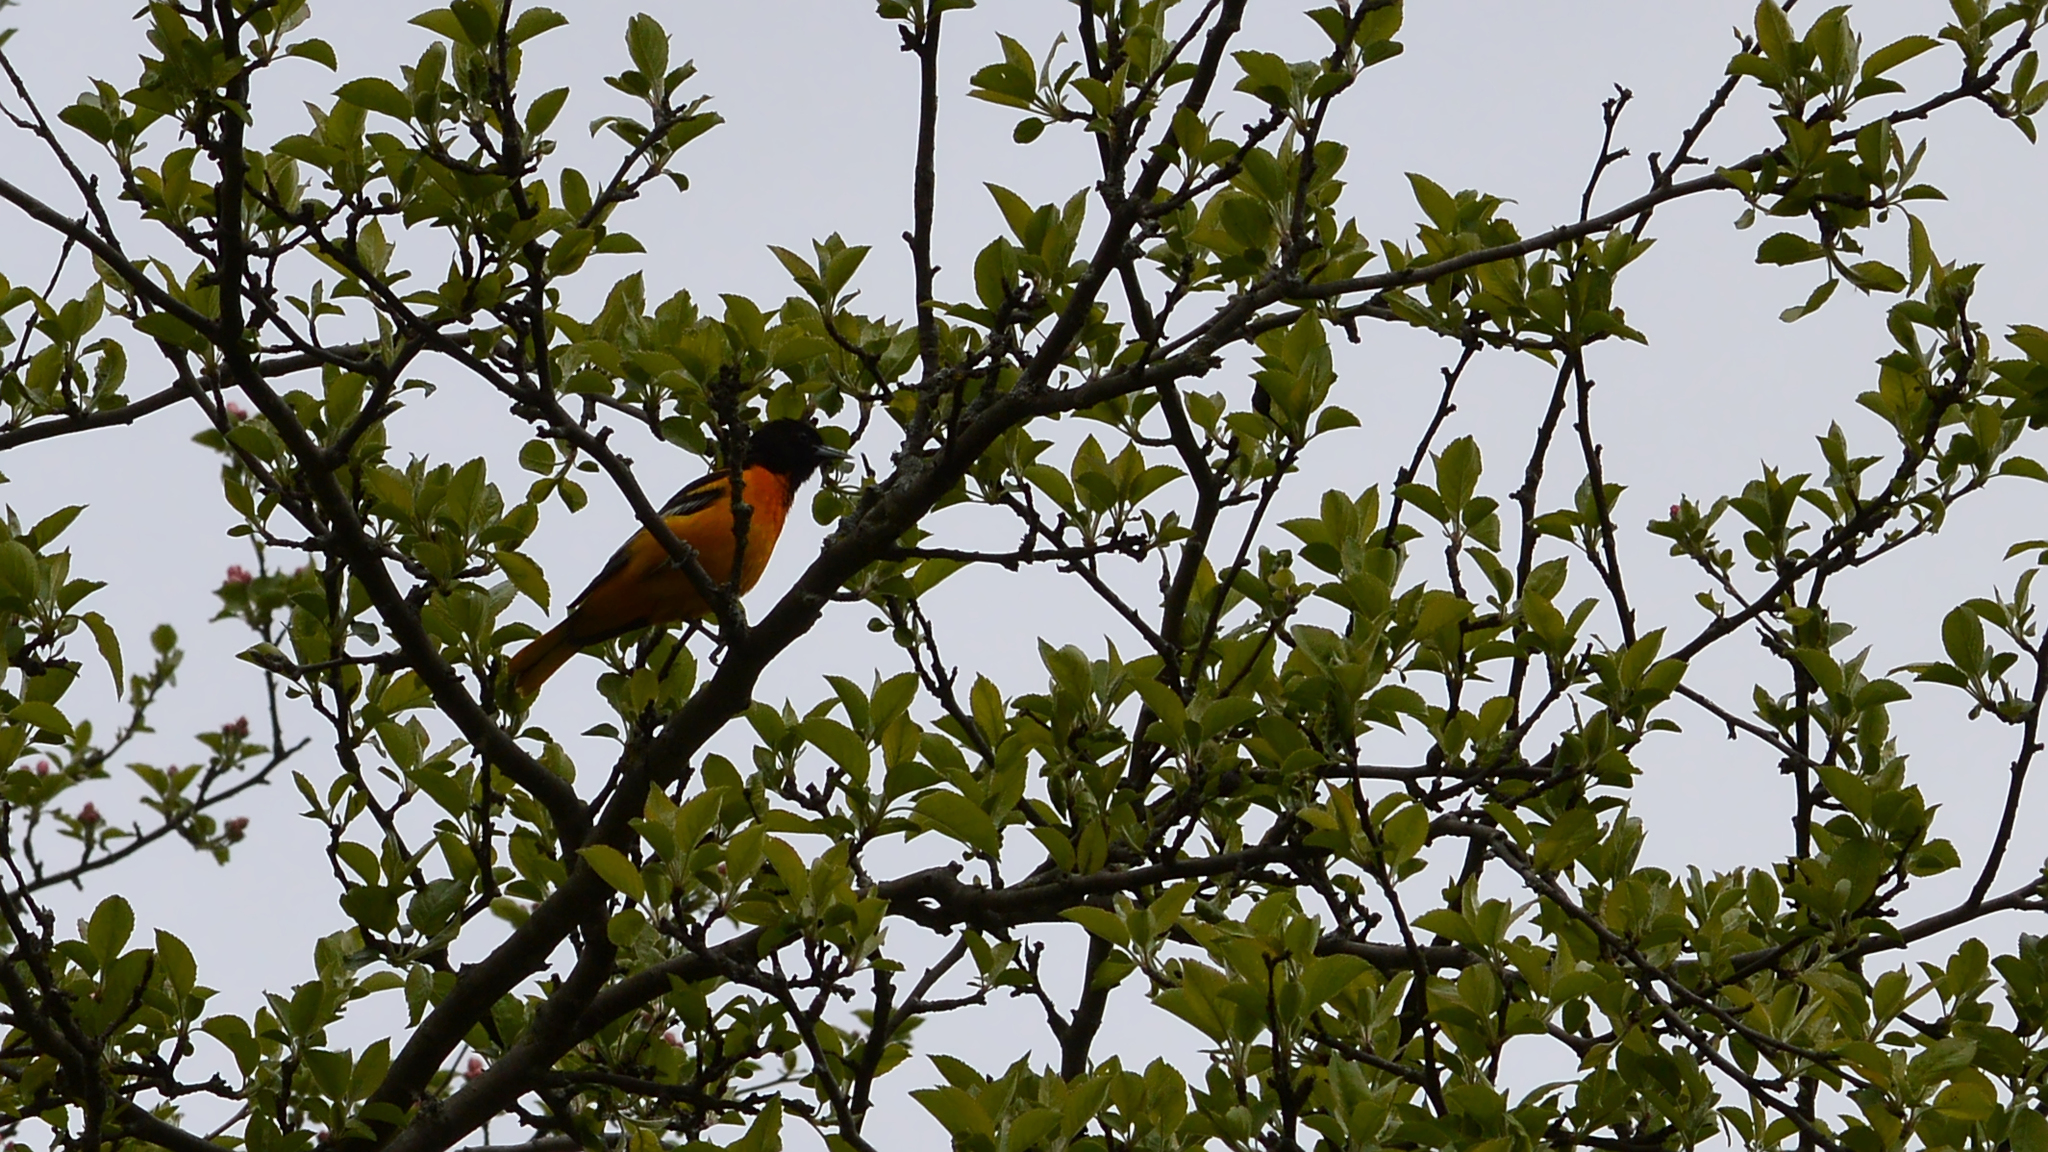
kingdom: Animalia
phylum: Chordata
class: Aves
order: Passeriformes
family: Icteridae
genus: Icterus
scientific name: Icterus galbula
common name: Baltimore oriole
